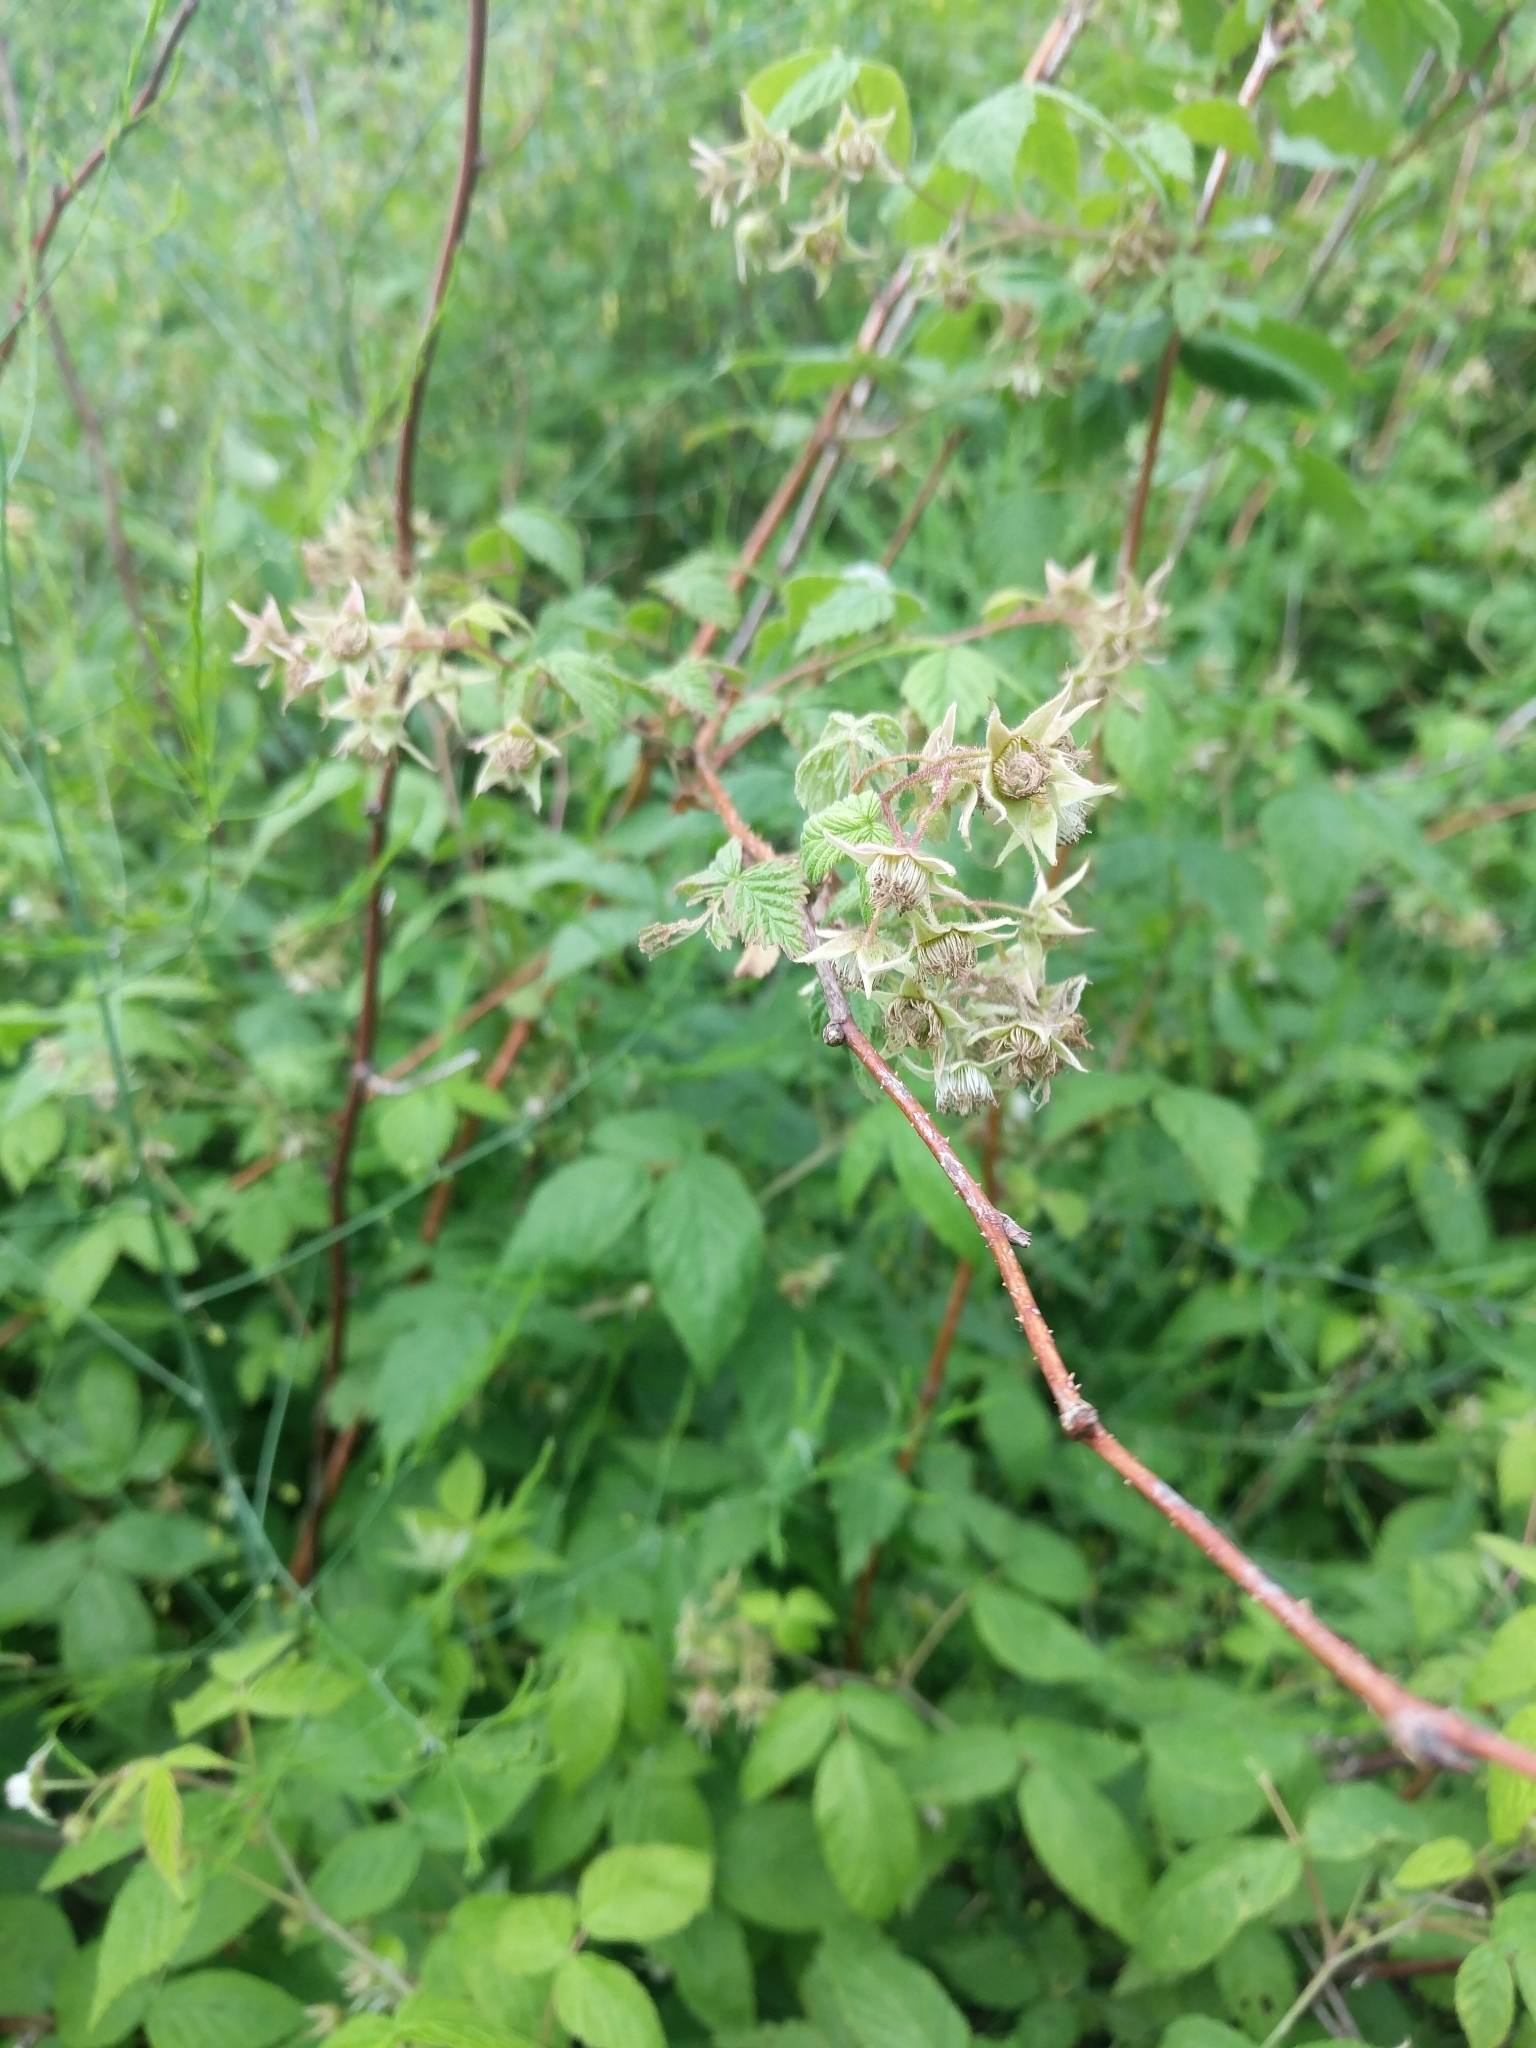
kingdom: Plantae
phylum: Tracheophyta
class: Magnoliopsida
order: Rosales
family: Rosaceae
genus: Rubus
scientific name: Rubus idaeus
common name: Raspberry
